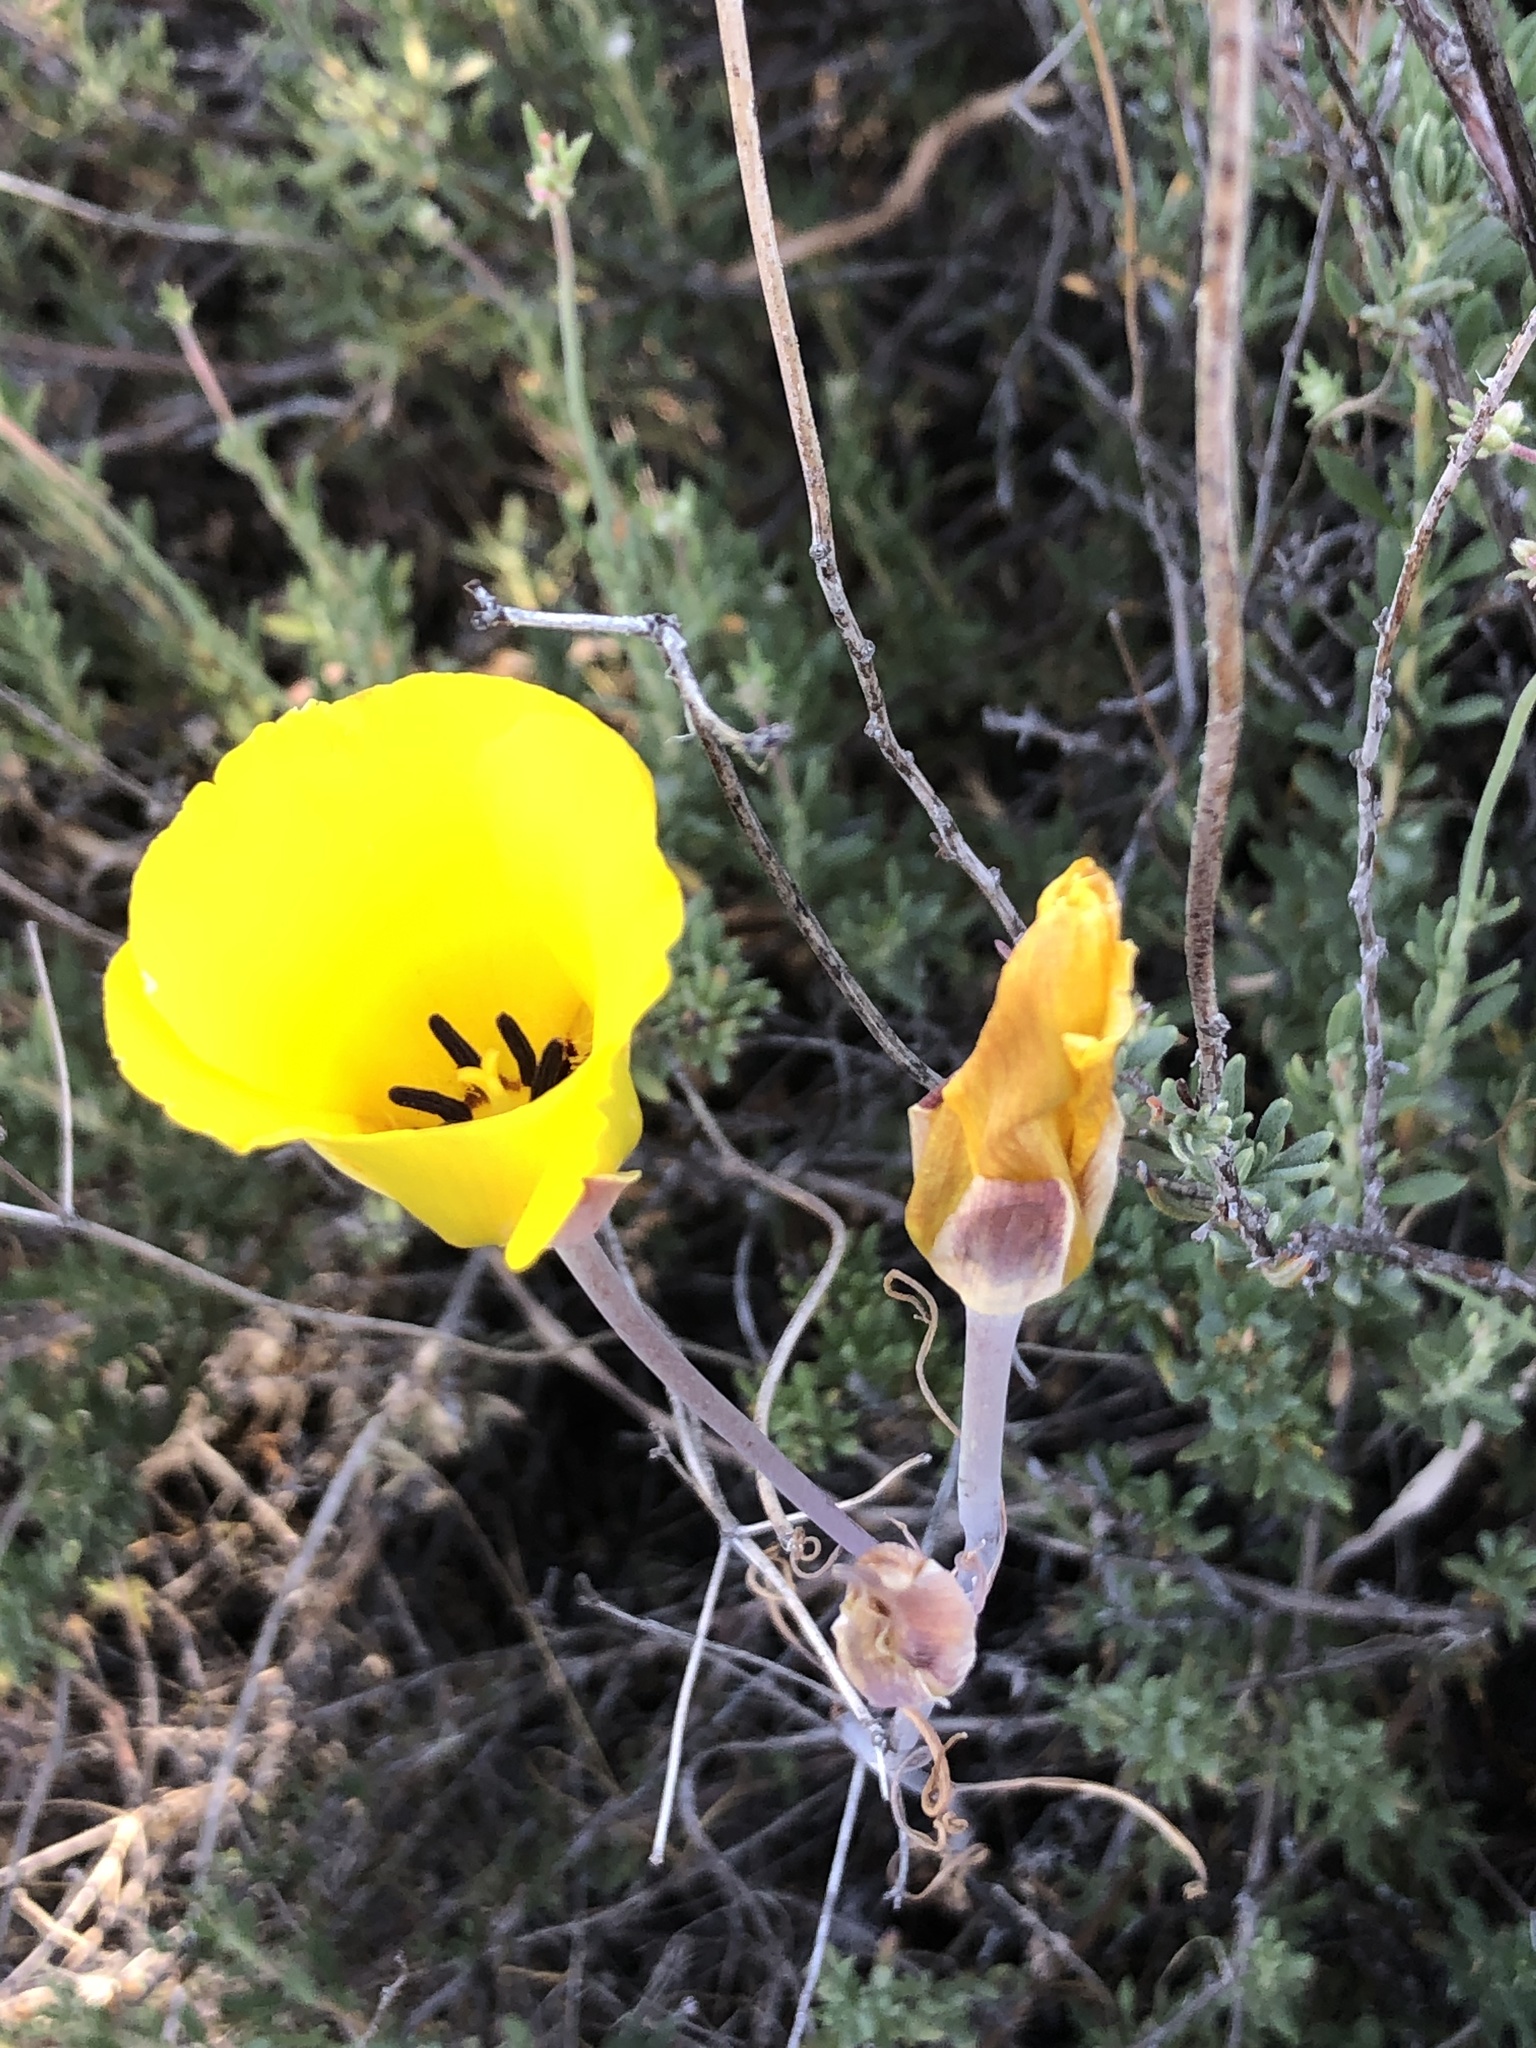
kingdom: Plantae
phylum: Tracheophyta
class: Liliopsida
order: Liliales
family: Liliaceae
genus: Calochortus
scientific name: Calochortus clavatus
